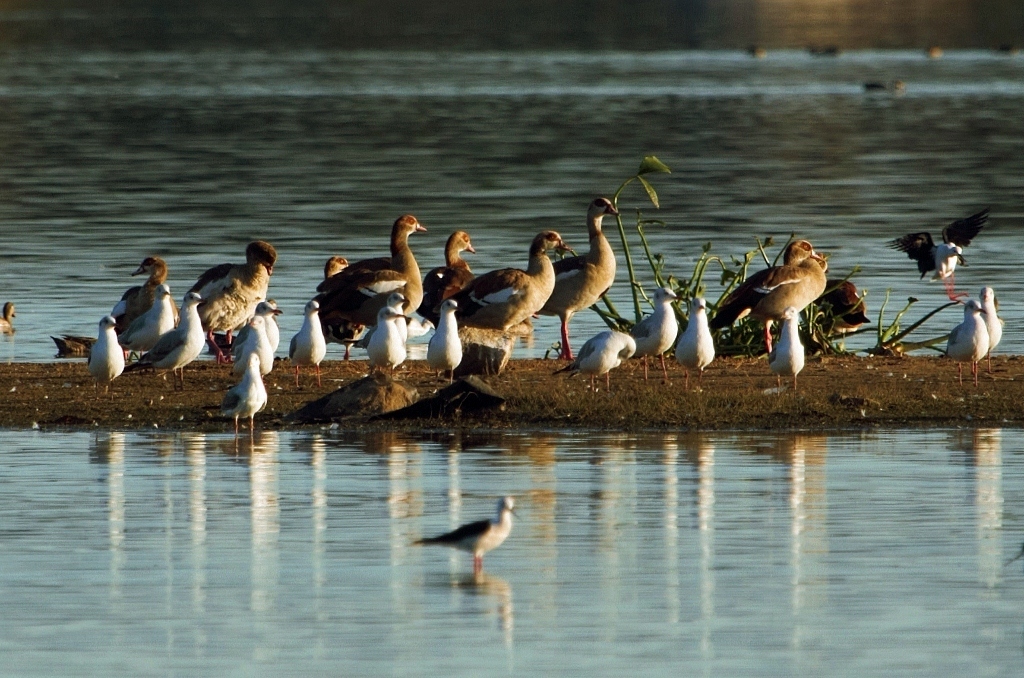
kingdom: Animalia
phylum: Chordata
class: Aves
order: Anseriformes
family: Anatidae
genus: Alopochen
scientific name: Alopochen aegyptiaca
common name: Egyptian goose
